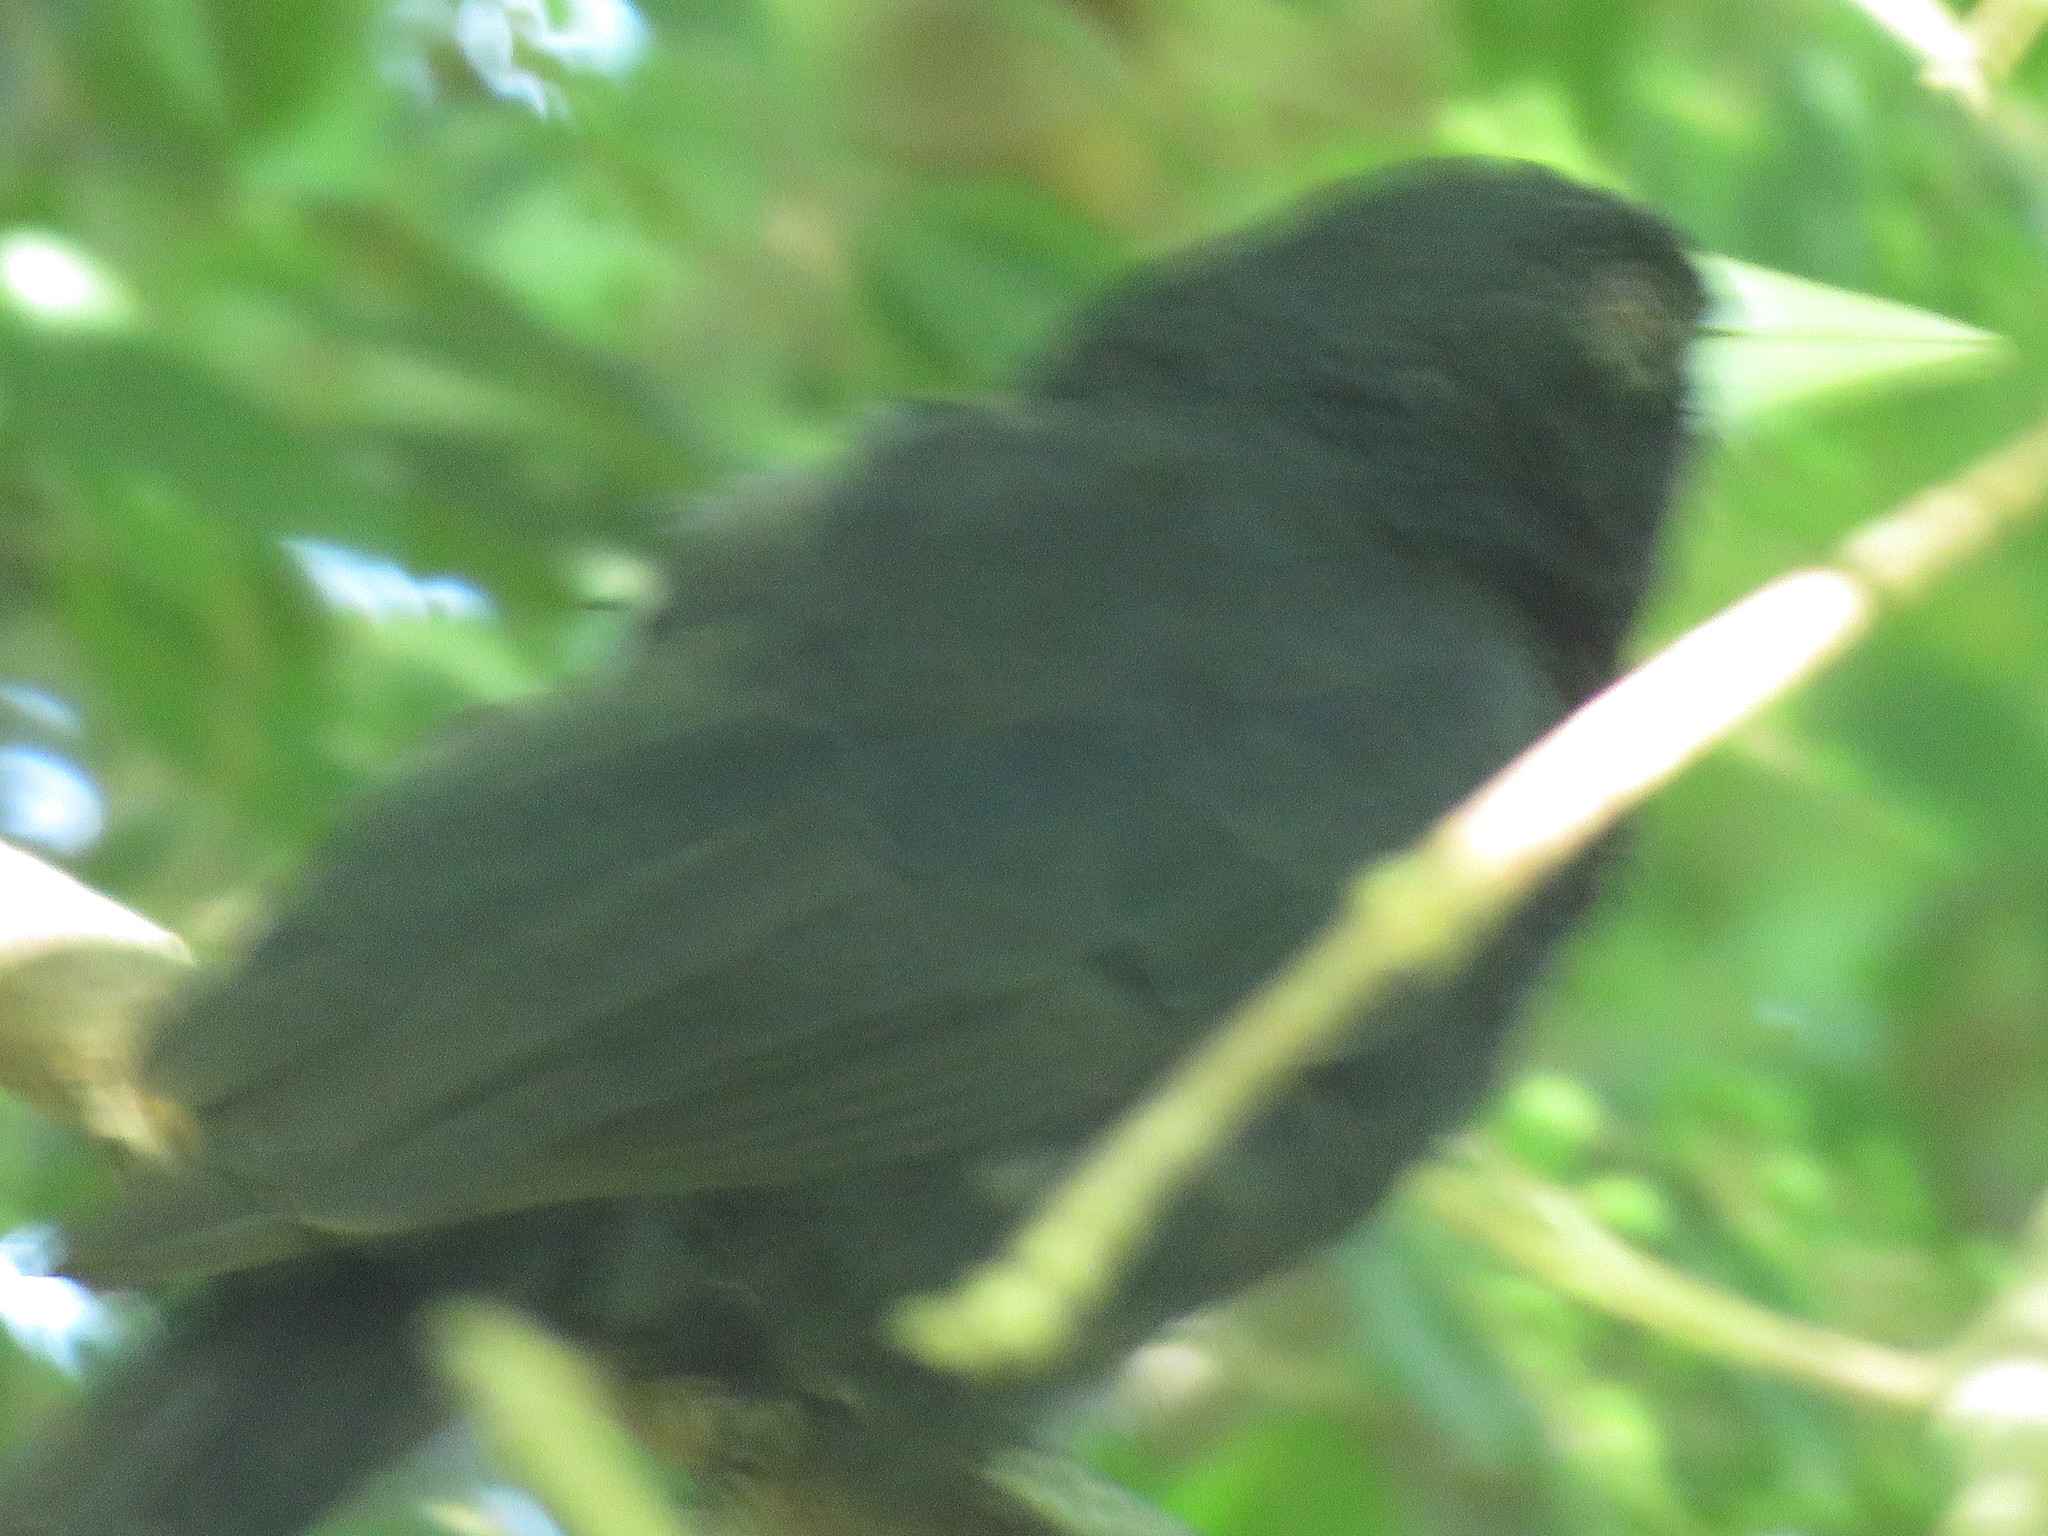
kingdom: Animalia
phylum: Chordata
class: Aves
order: Passeriformes
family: Icteridae
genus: Cacicus
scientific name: Cacicus solitarius
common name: Solitary cacique
